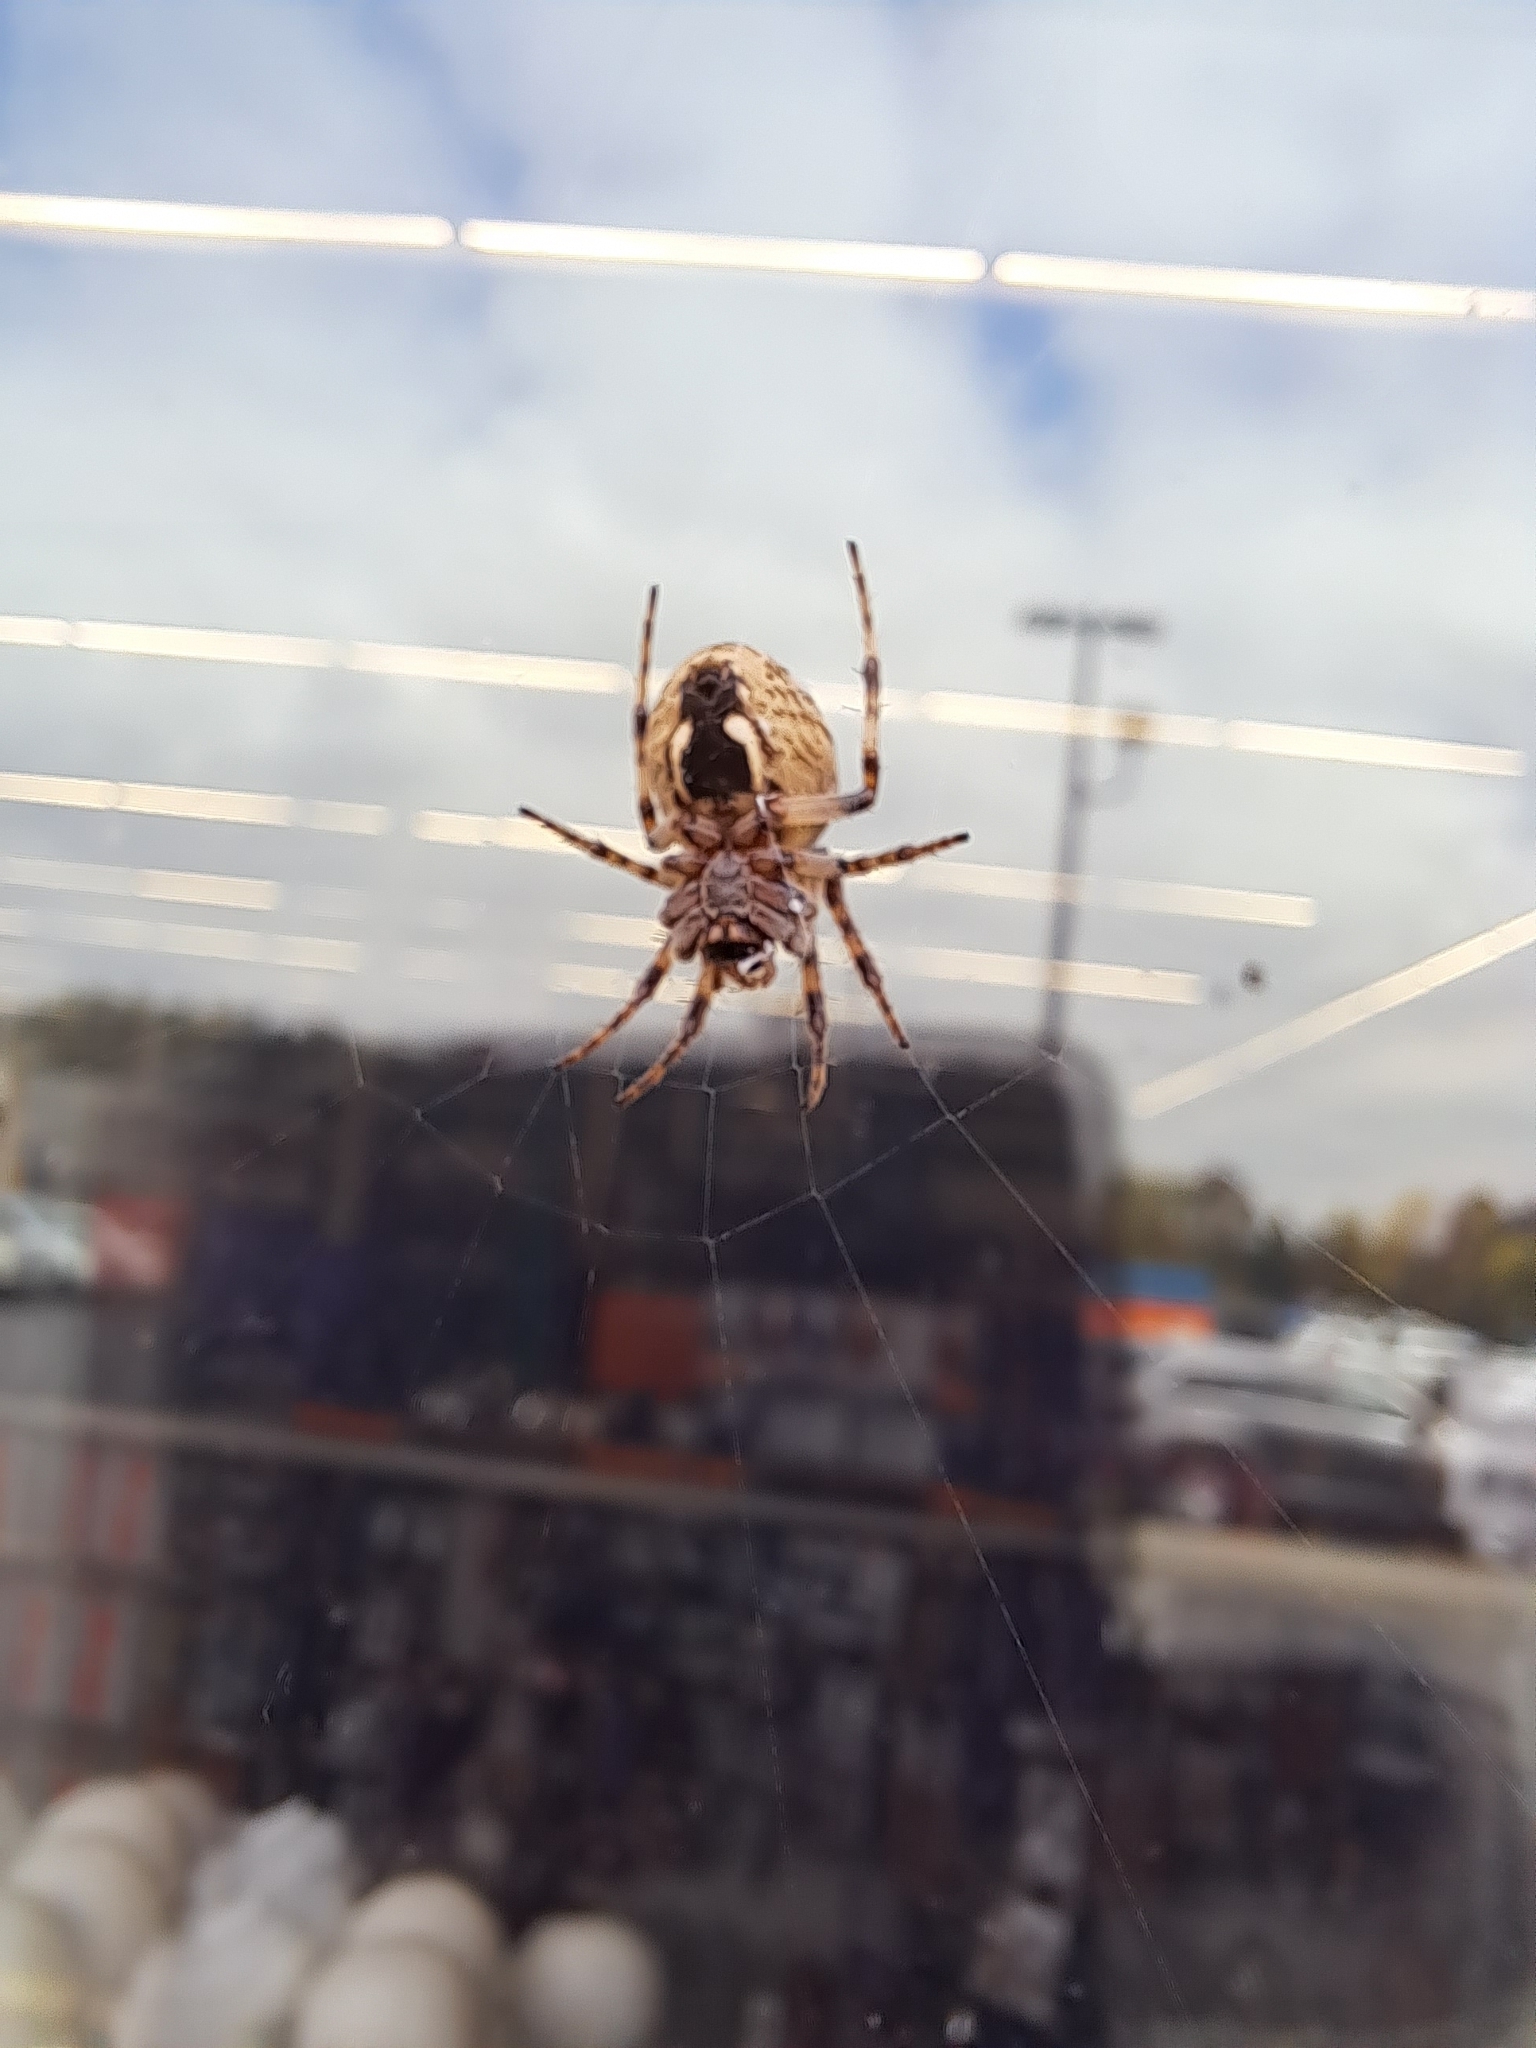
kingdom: Animalia
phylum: Arthropoda
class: Arachnida
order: Araneae
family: Araneidae
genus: Larinioides
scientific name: Larinioides sclopetarius
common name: Bridge orbweaver
